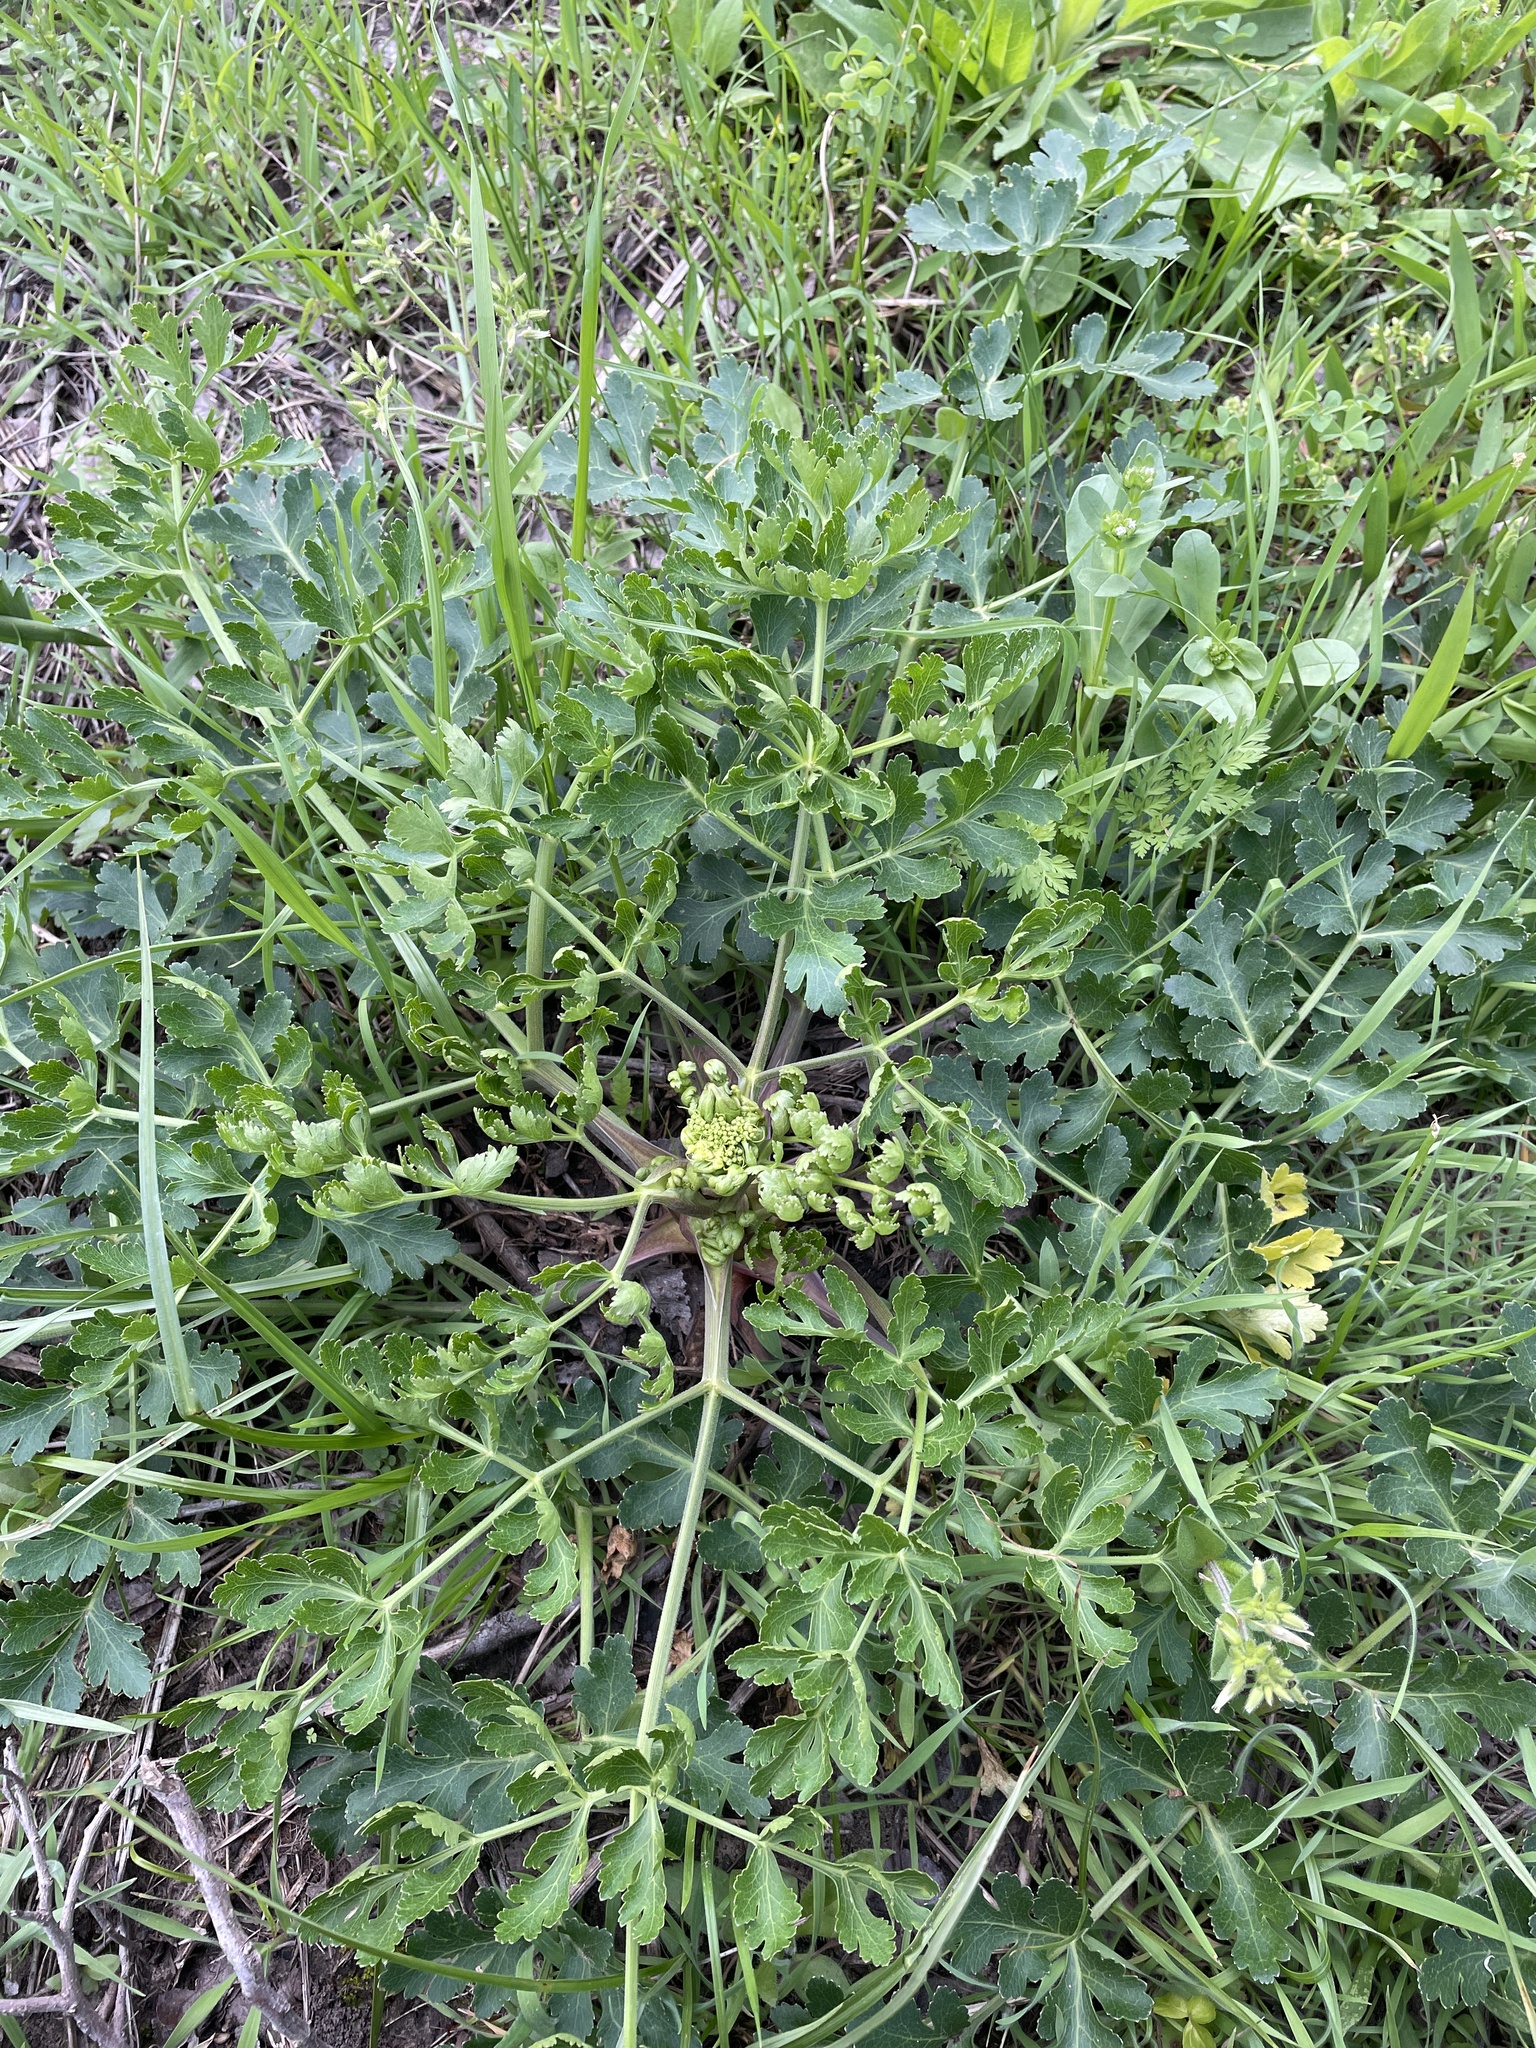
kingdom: Plantae
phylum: Tracheophyta
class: Magnoliopsida
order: Apiales
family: Apiaceae
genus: Polytaenia
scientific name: Polytaenia texana
